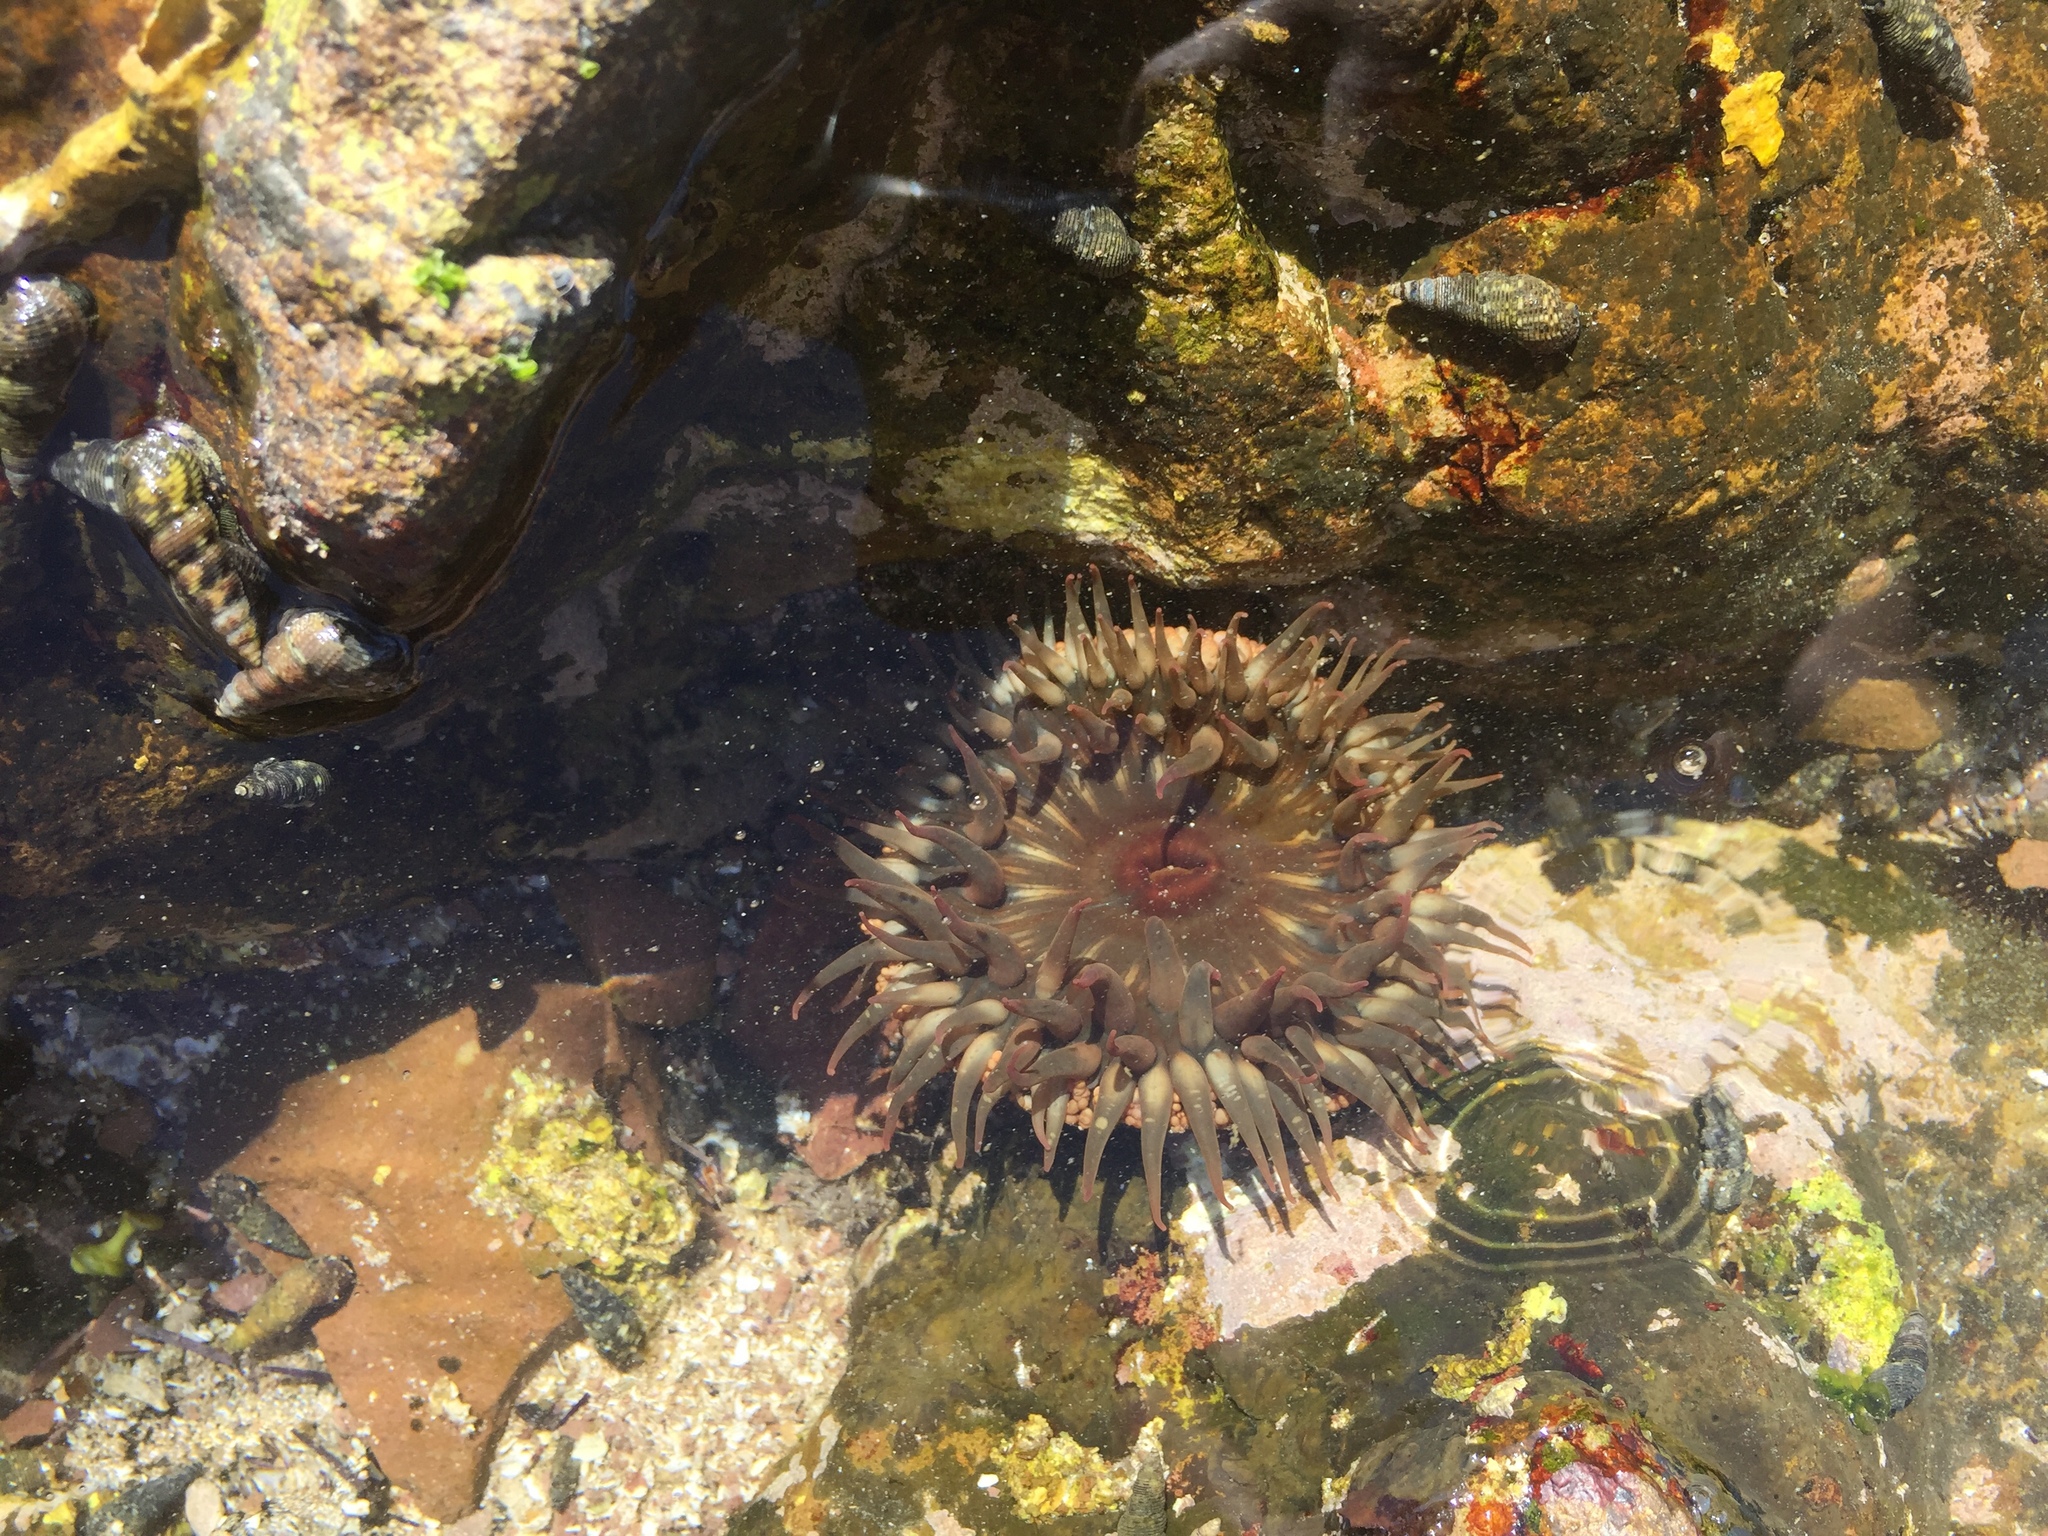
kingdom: Animalia
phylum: Cnidaria
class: Anthozoa
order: Actiniaria
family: Actiniidae
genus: Bunodosoma
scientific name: Bunodosoma californicum
